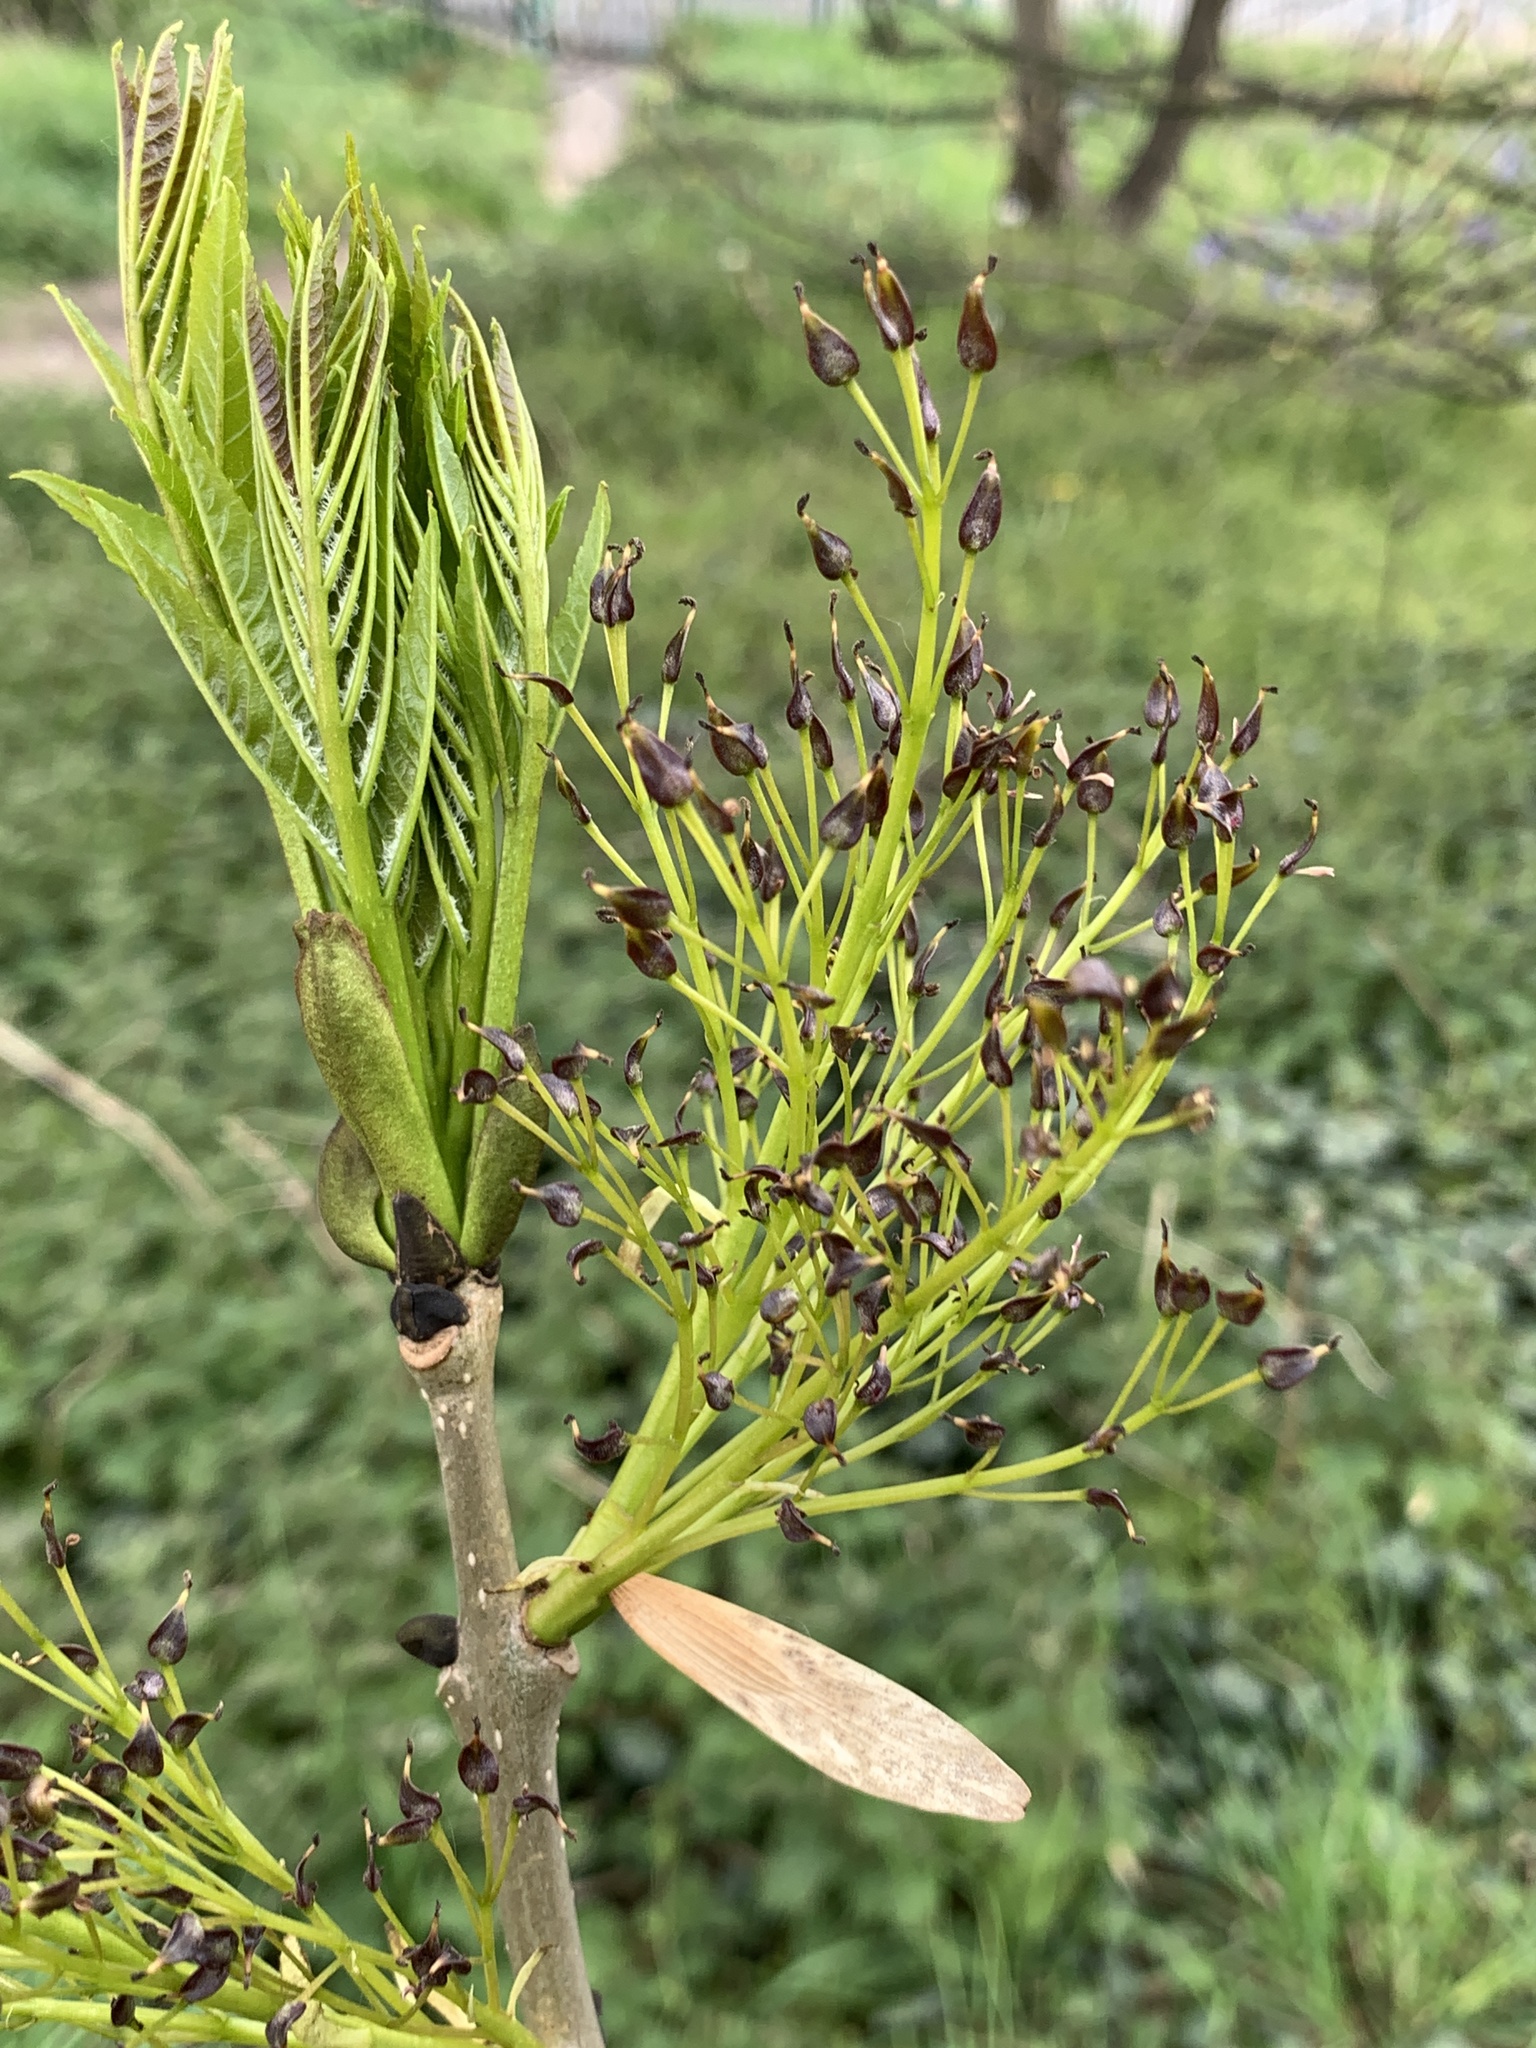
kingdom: Plantae
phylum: Tracheophyta
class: Magnoliopsida
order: Lamiales
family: Oleaceae
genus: Fraxinus
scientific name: Fraxinus excelsior
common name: European ash
